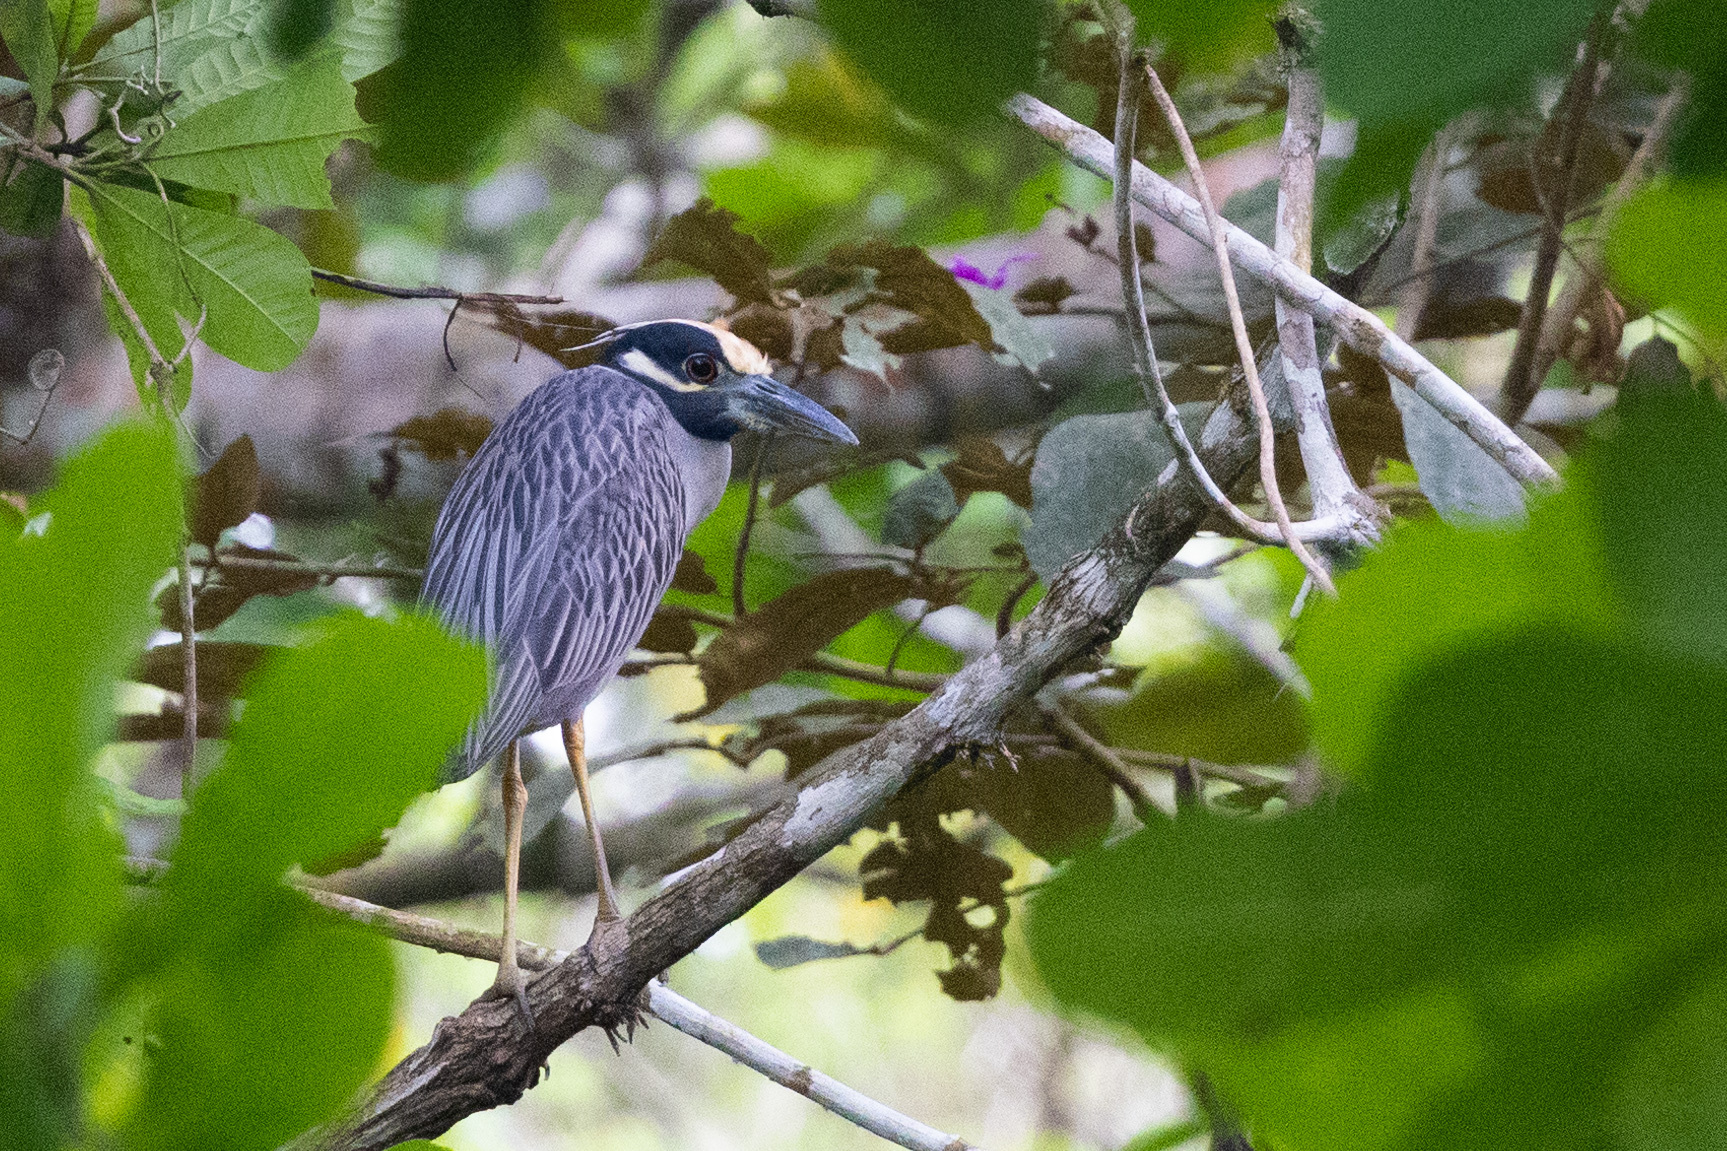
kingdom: Animalia
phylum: Chordata
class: Aves
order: Pelecaniformes
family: Ardeidae
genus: Nyctanassa
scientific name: Nyctanassa violacea
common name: Yellow-crowned night heron
